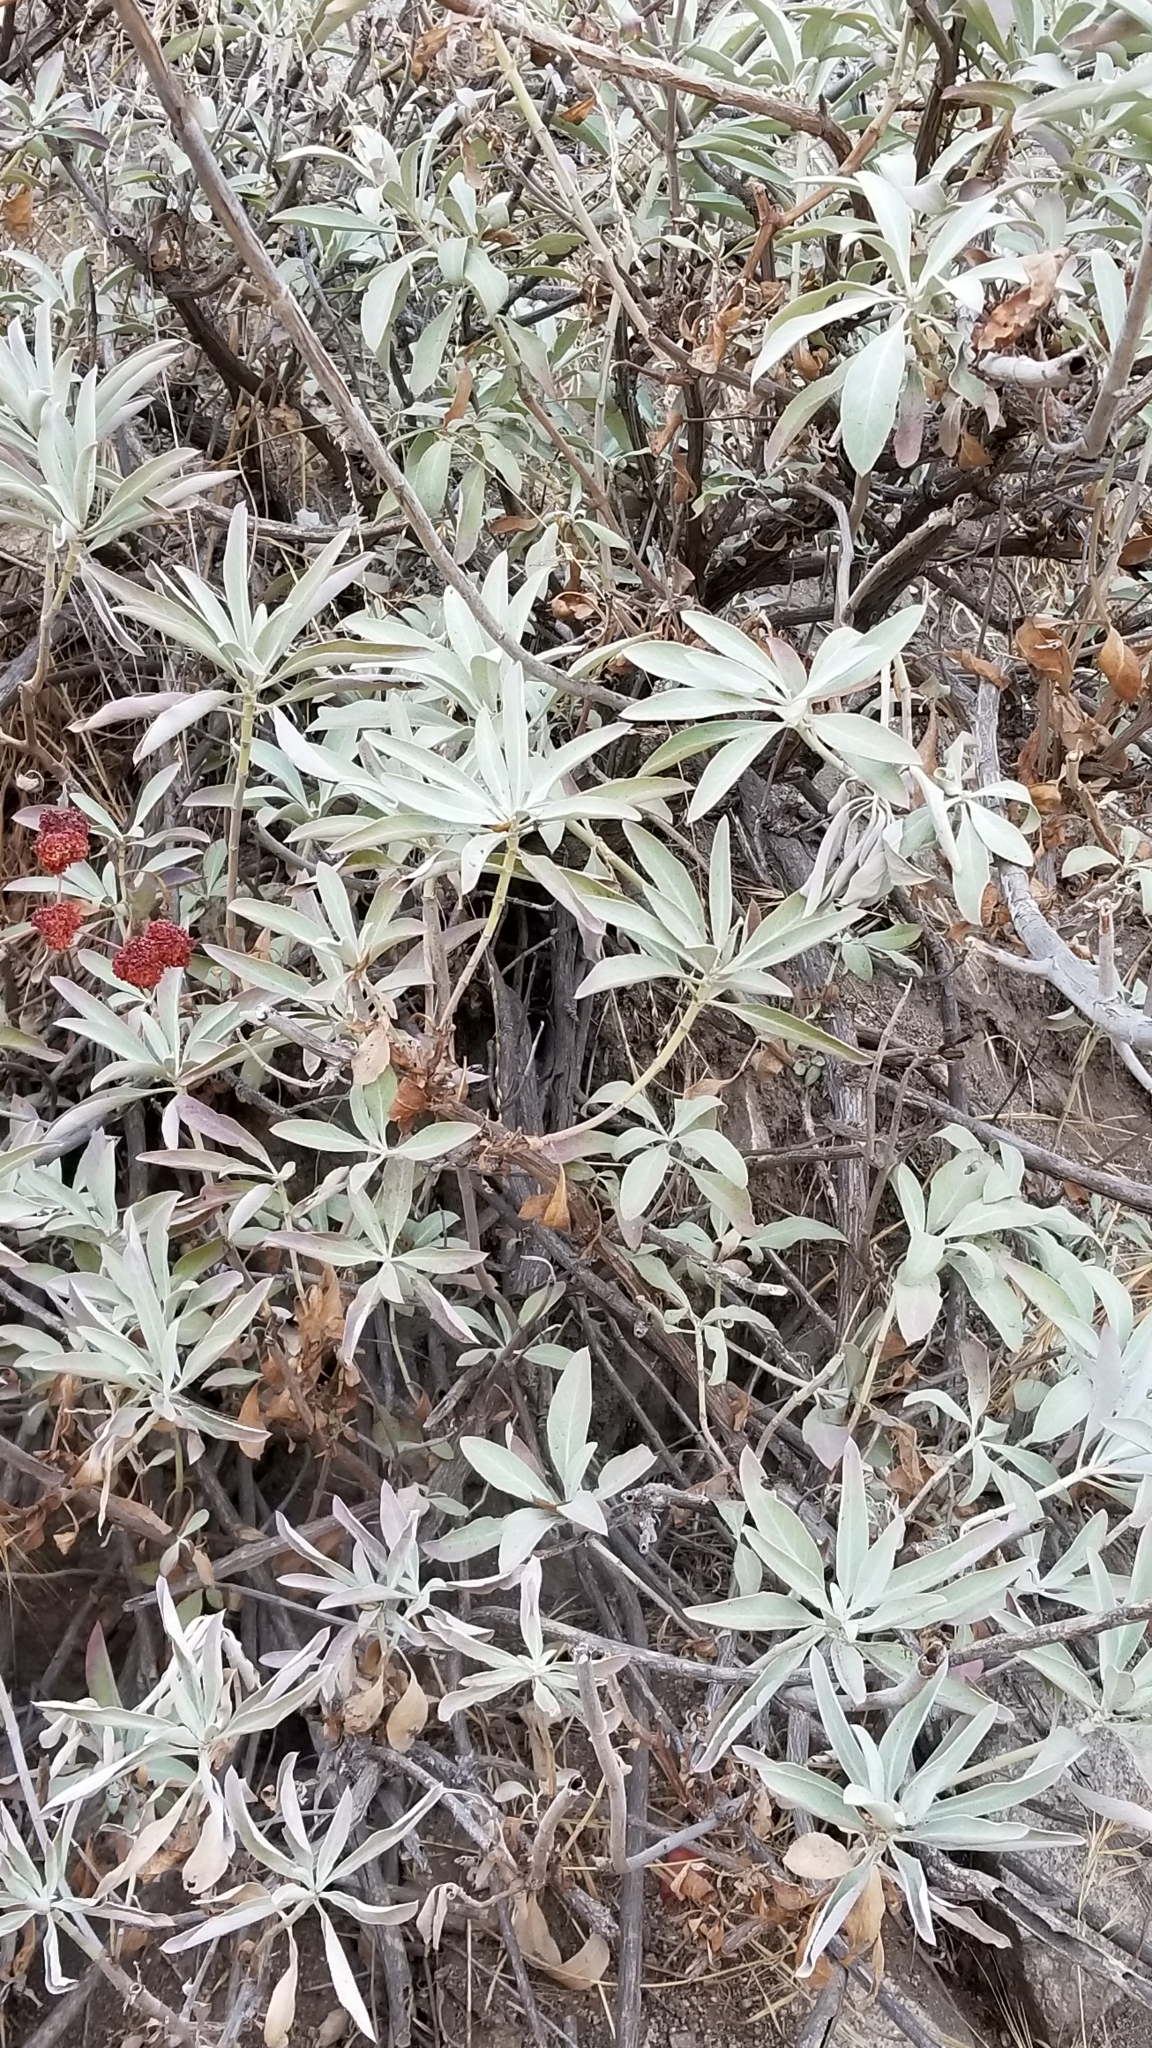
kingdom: Plantae
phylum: Tracheophyta
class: Magnoliopsida
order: Lamiales
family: Lamiaceae
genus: Salvia
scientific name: Salvia apiana
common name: White sage
